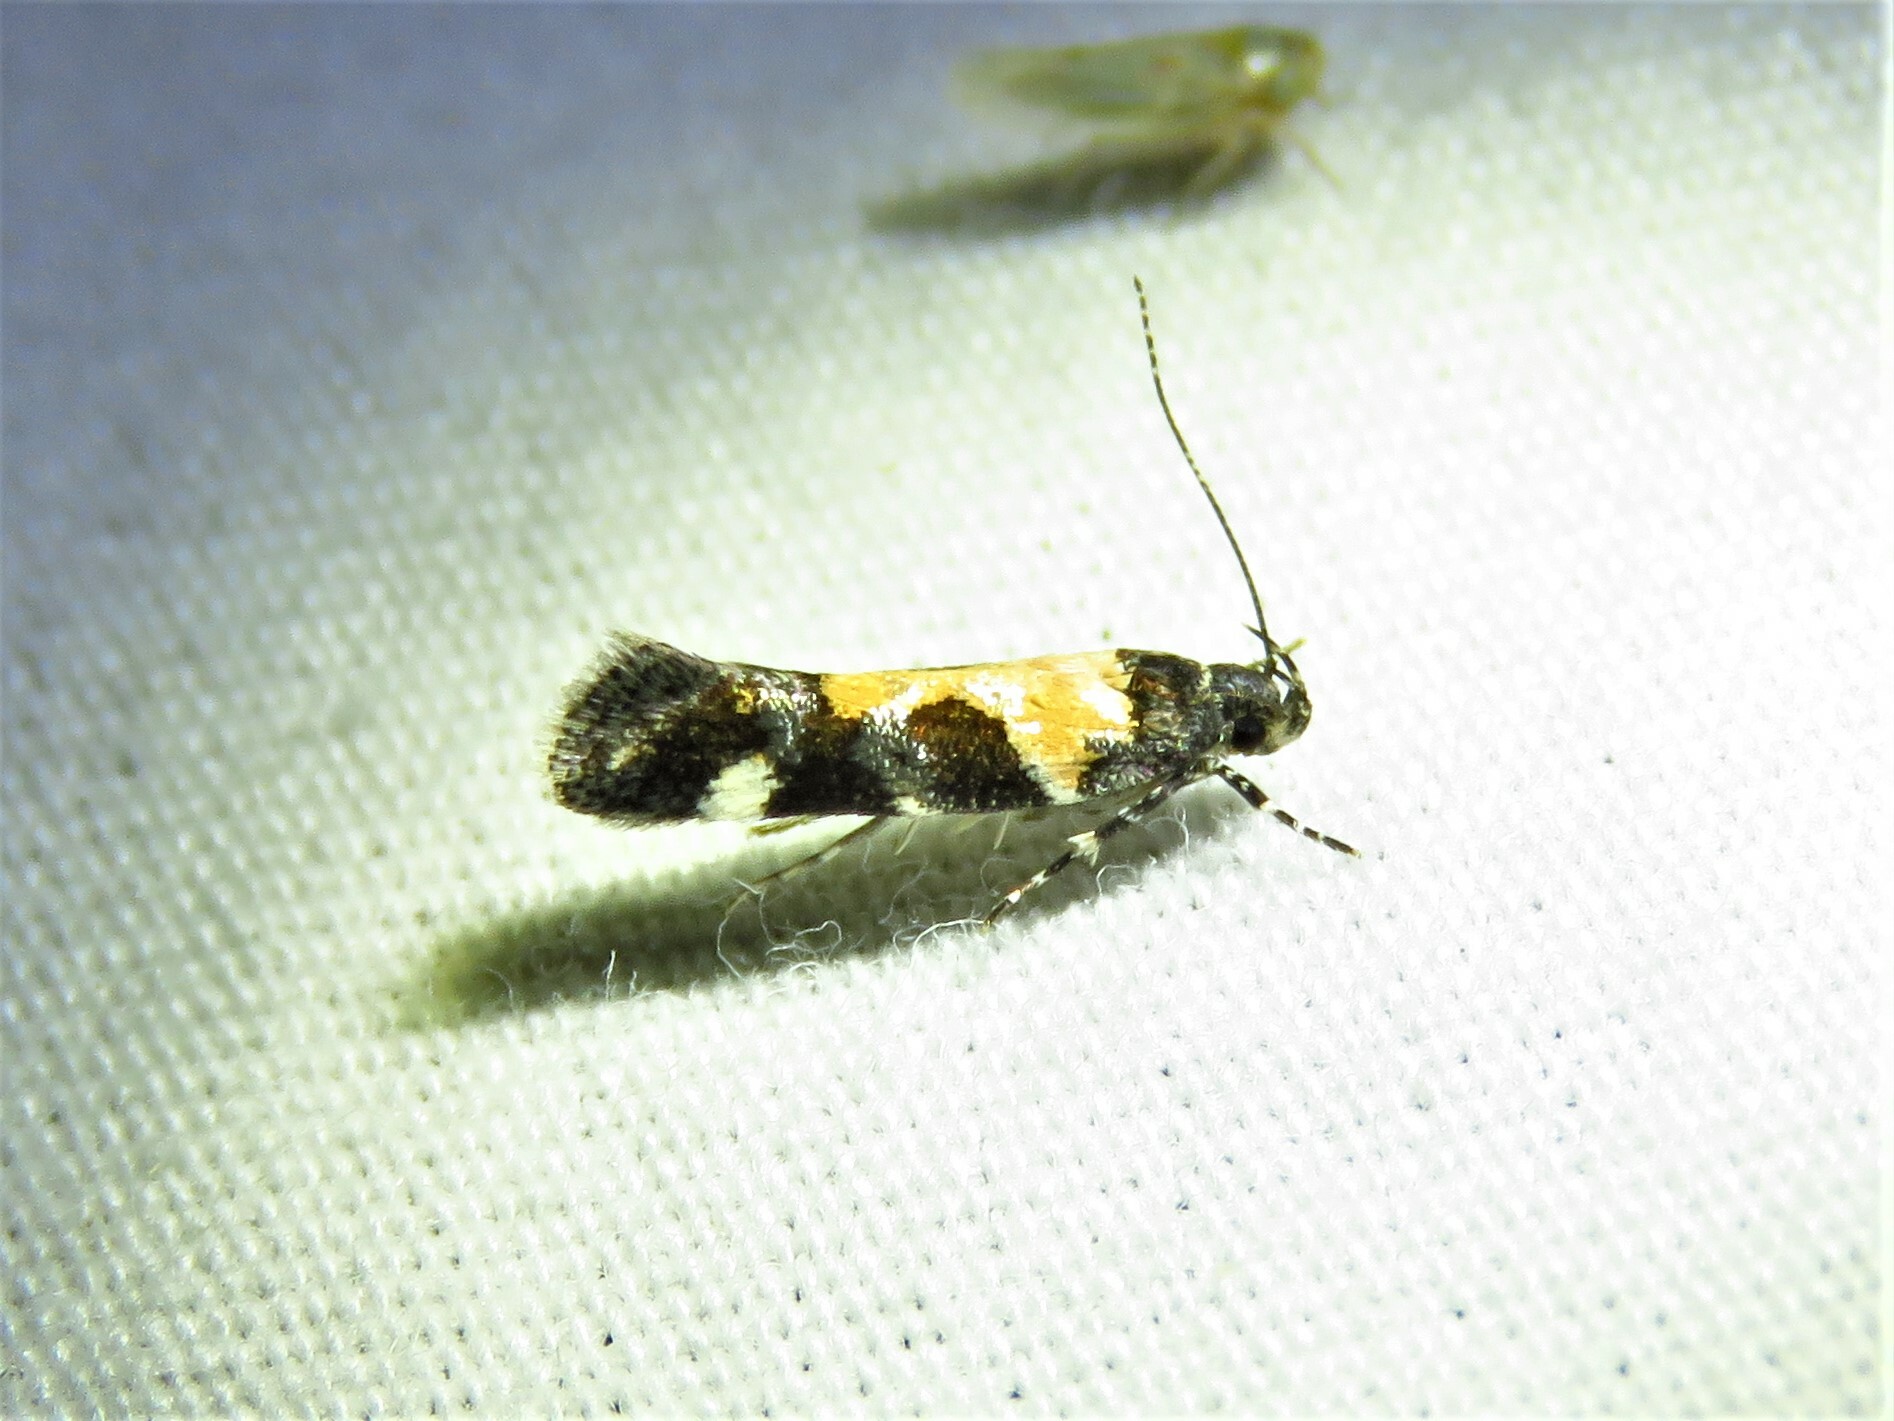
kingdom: Animalia
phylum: Arthropoda
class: Insecta
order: Lepidoptera
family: Gelechiidae
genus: Stegasta
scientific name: Stegasta bosqueella
